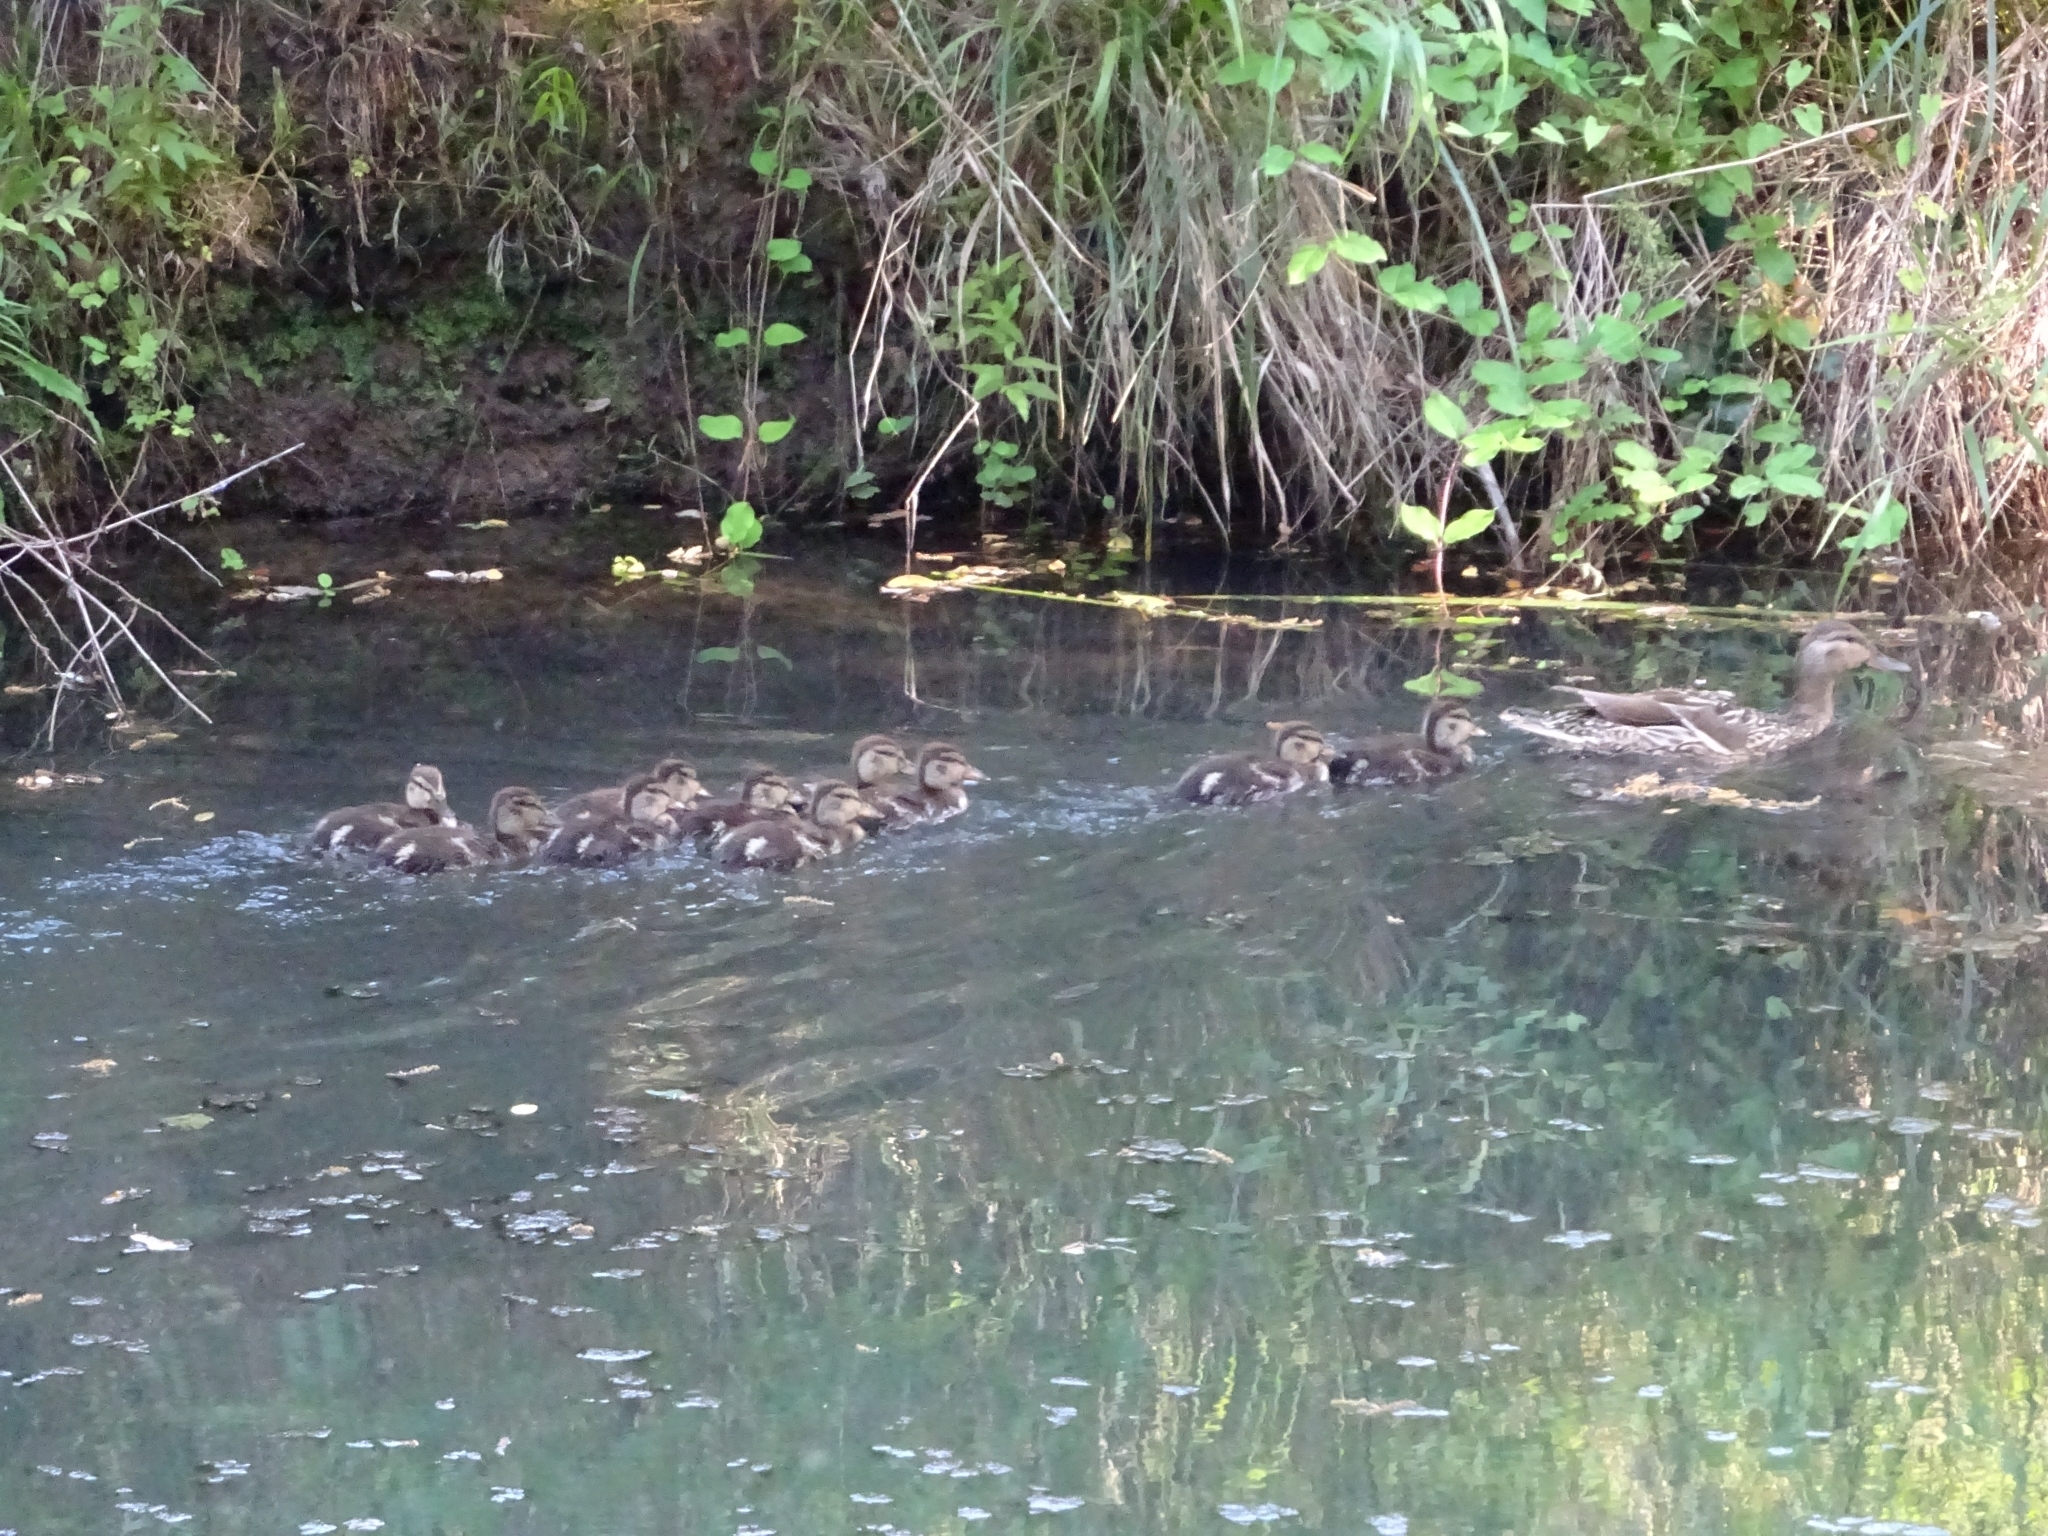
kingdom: Animalia
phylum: Chordata
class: Aves
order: Anseriformes
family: Anatidae
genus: Anas
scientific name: Anas platyrhynchos
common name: Mallard
